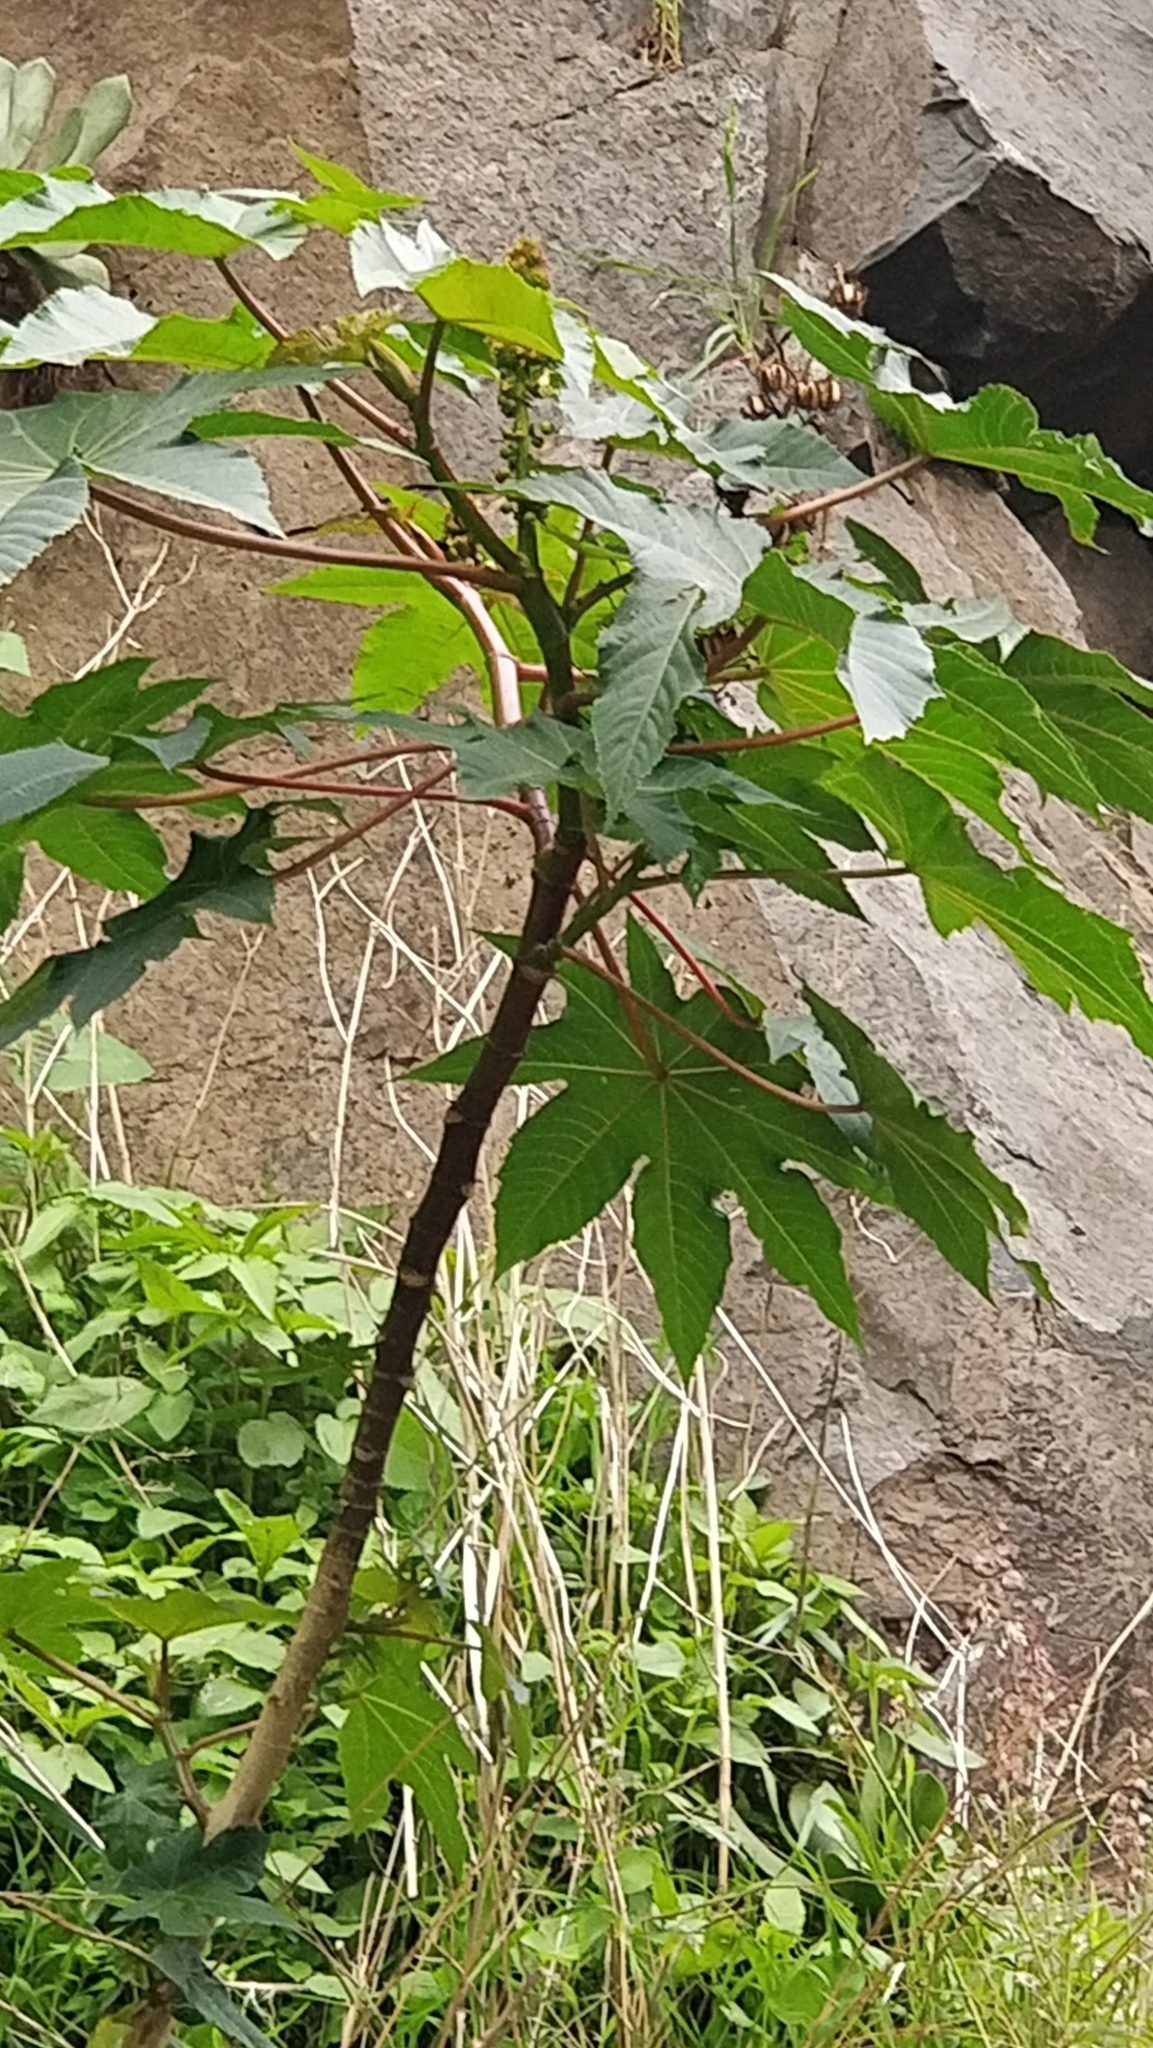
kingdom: Plantae
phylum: Tracheophyta
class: Magnoliopsida
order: Malpighiales
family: Euphorbiaceae
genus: Ricinus
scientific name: Ricinus communis
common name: Castor-oil-plant
